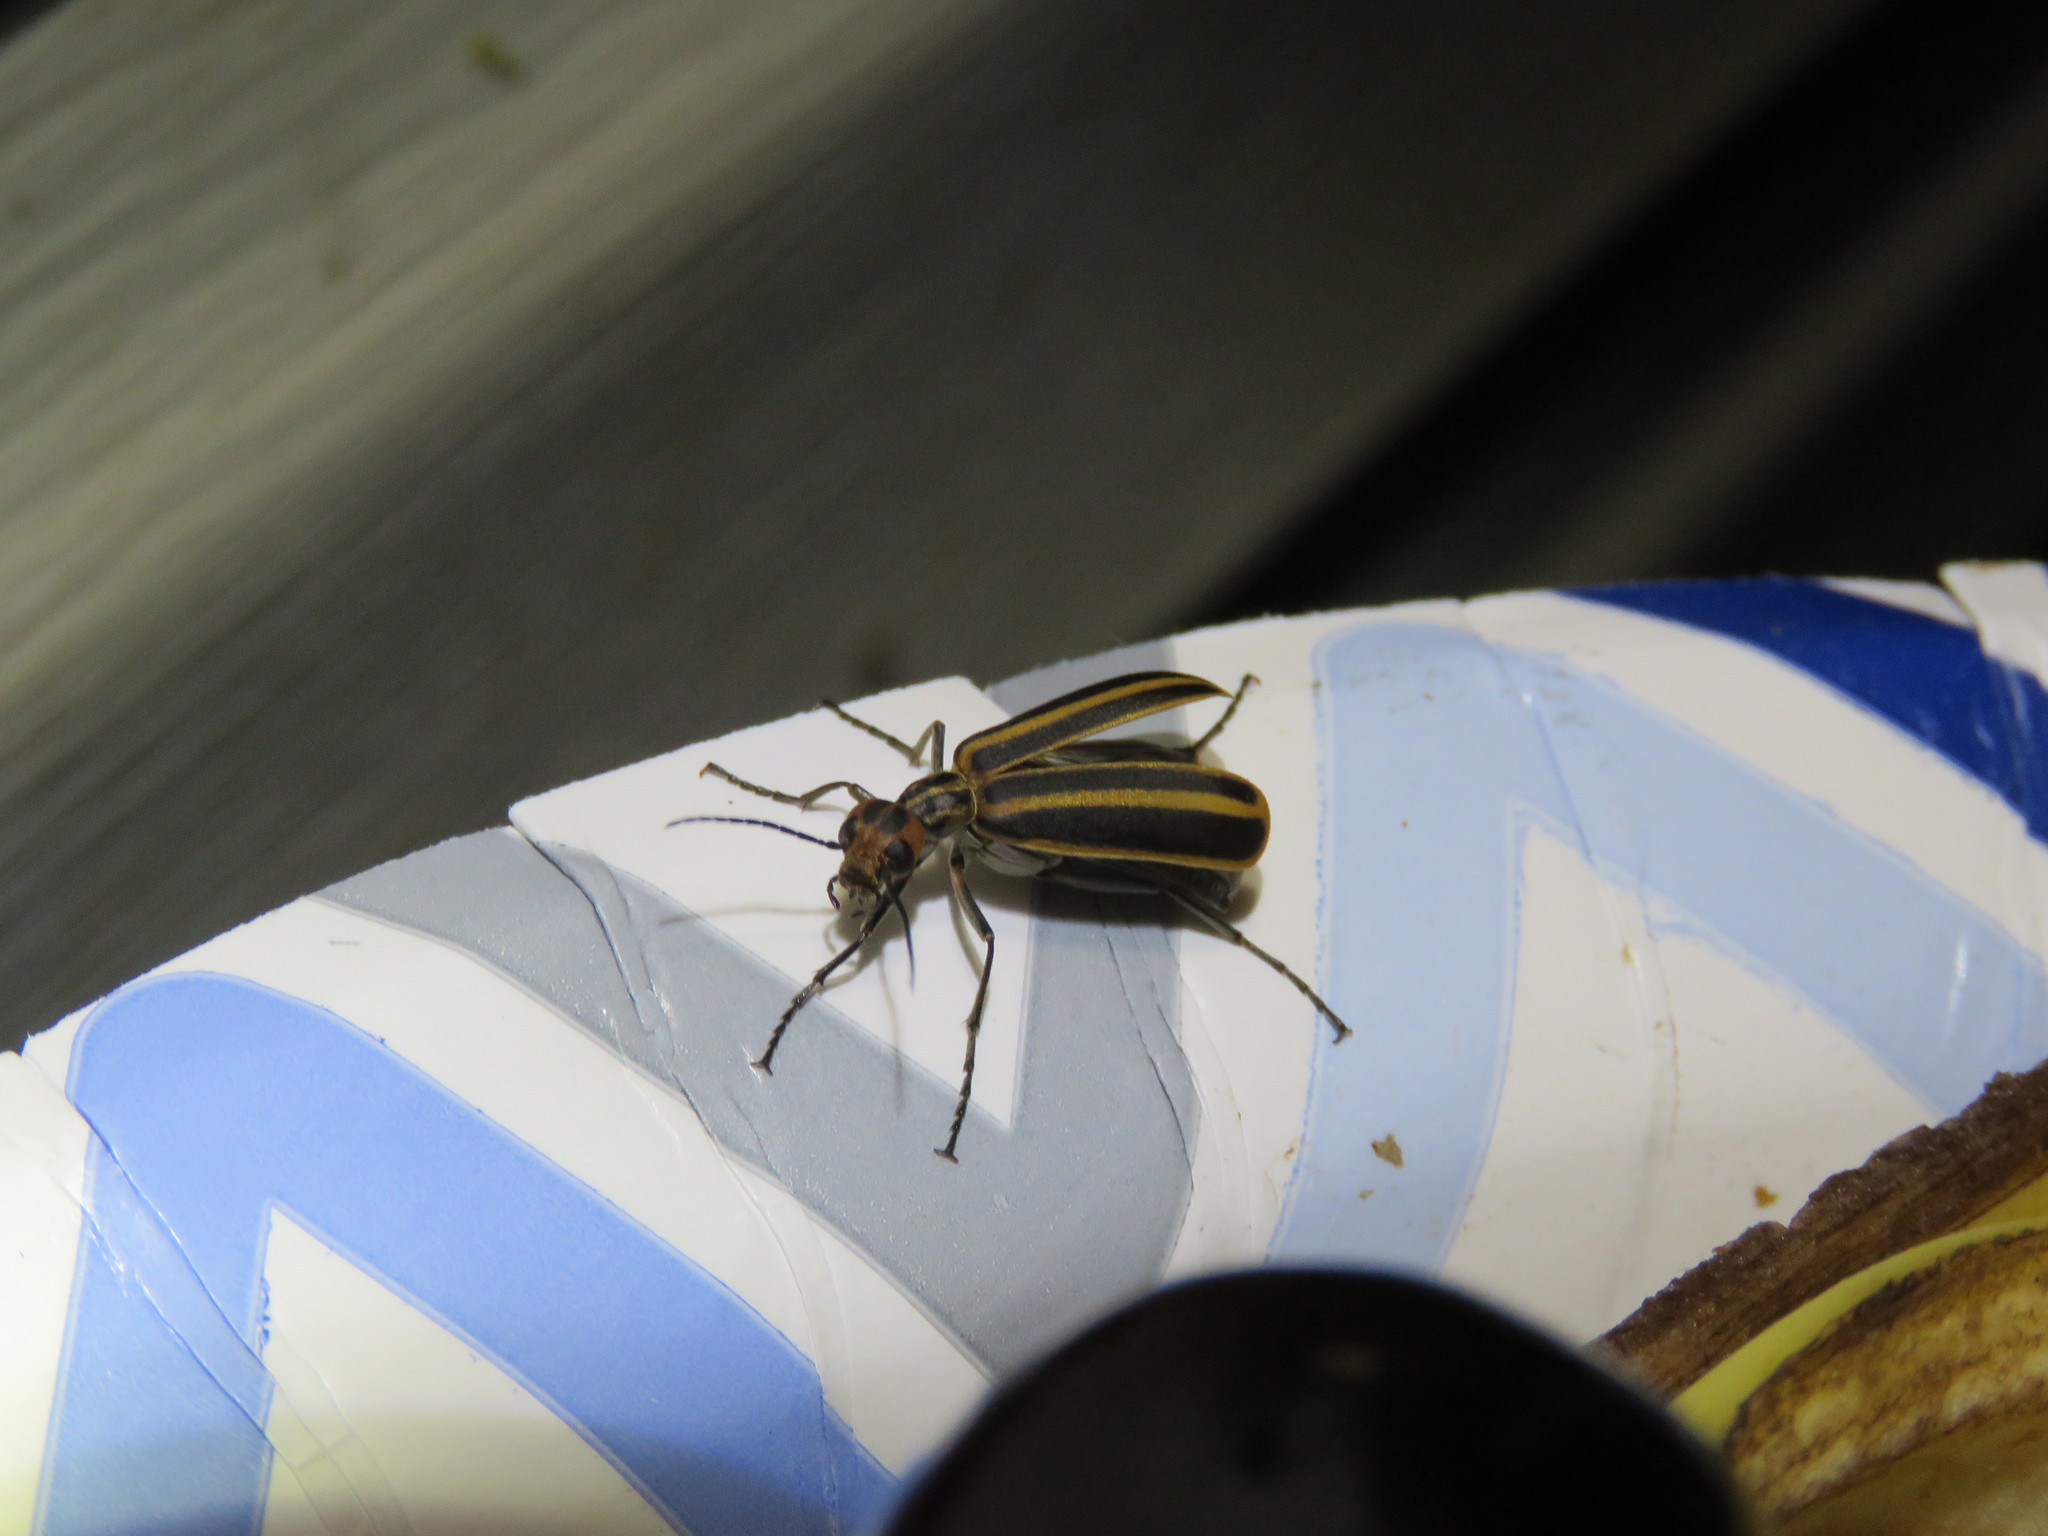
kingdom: Animalia
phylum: Arthropoda
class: Insecta
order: Coleoptera
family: Meloidae
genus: Epicauta
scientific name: Epicauta vittata
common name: Old-fashioned potato beetle
